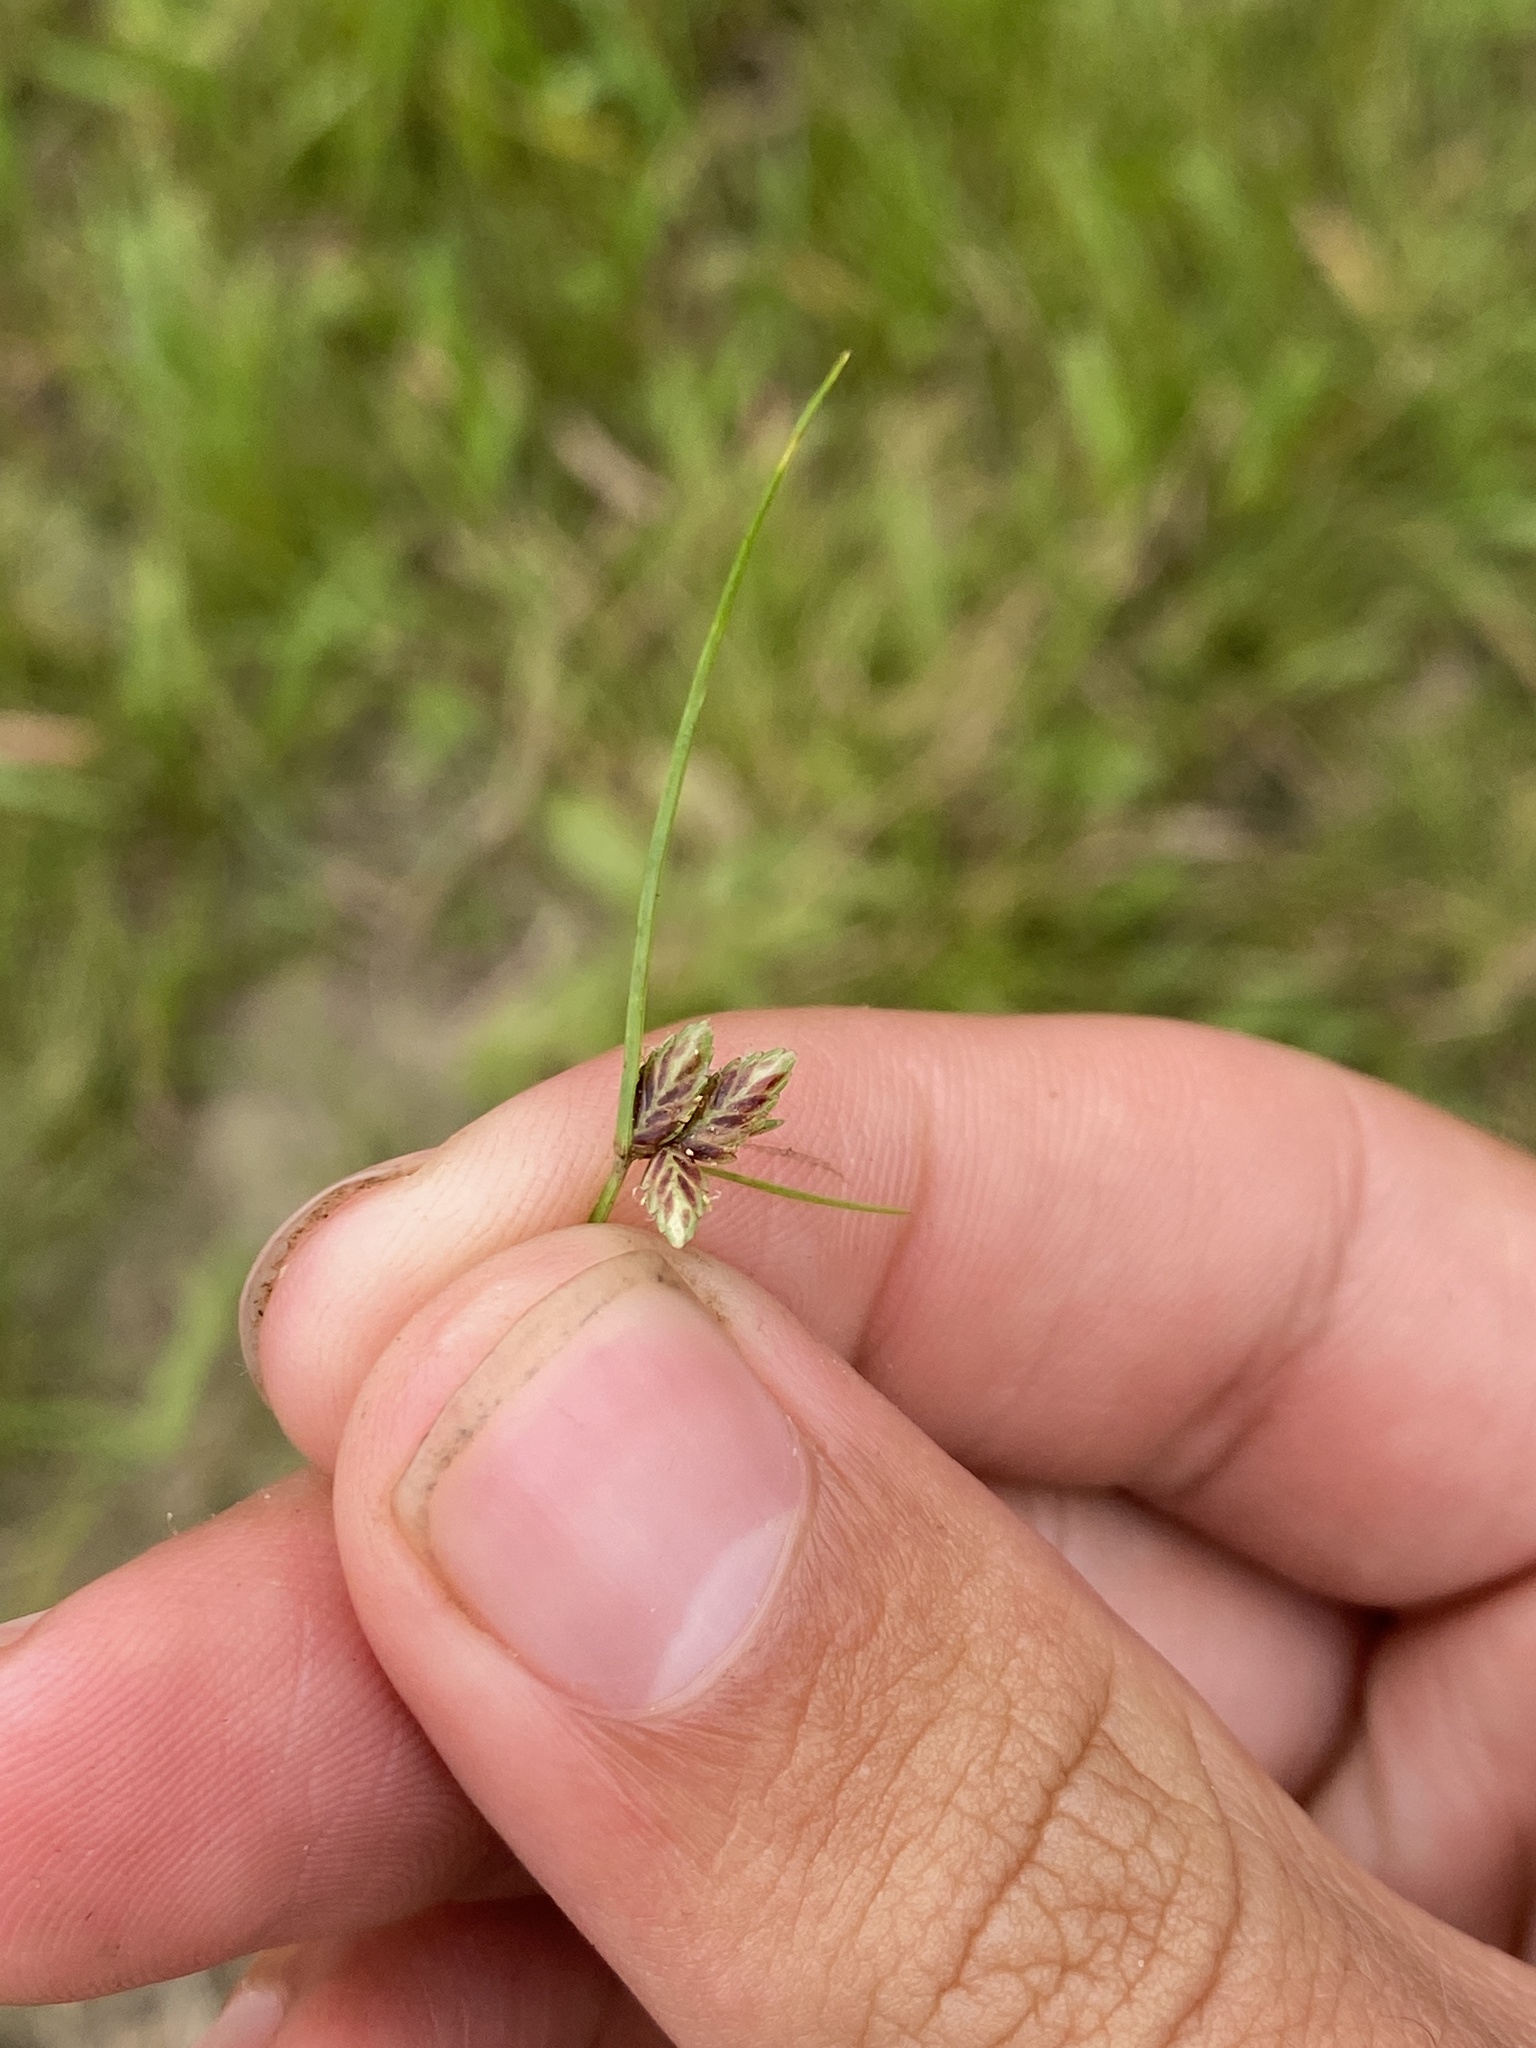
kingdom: Plantae
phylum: Tracheophyta
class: Liliopsida
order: Poales
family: Cyperaceae
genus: Cyperus
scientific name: Cyperus bipartitus
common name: Brook flatsedge
